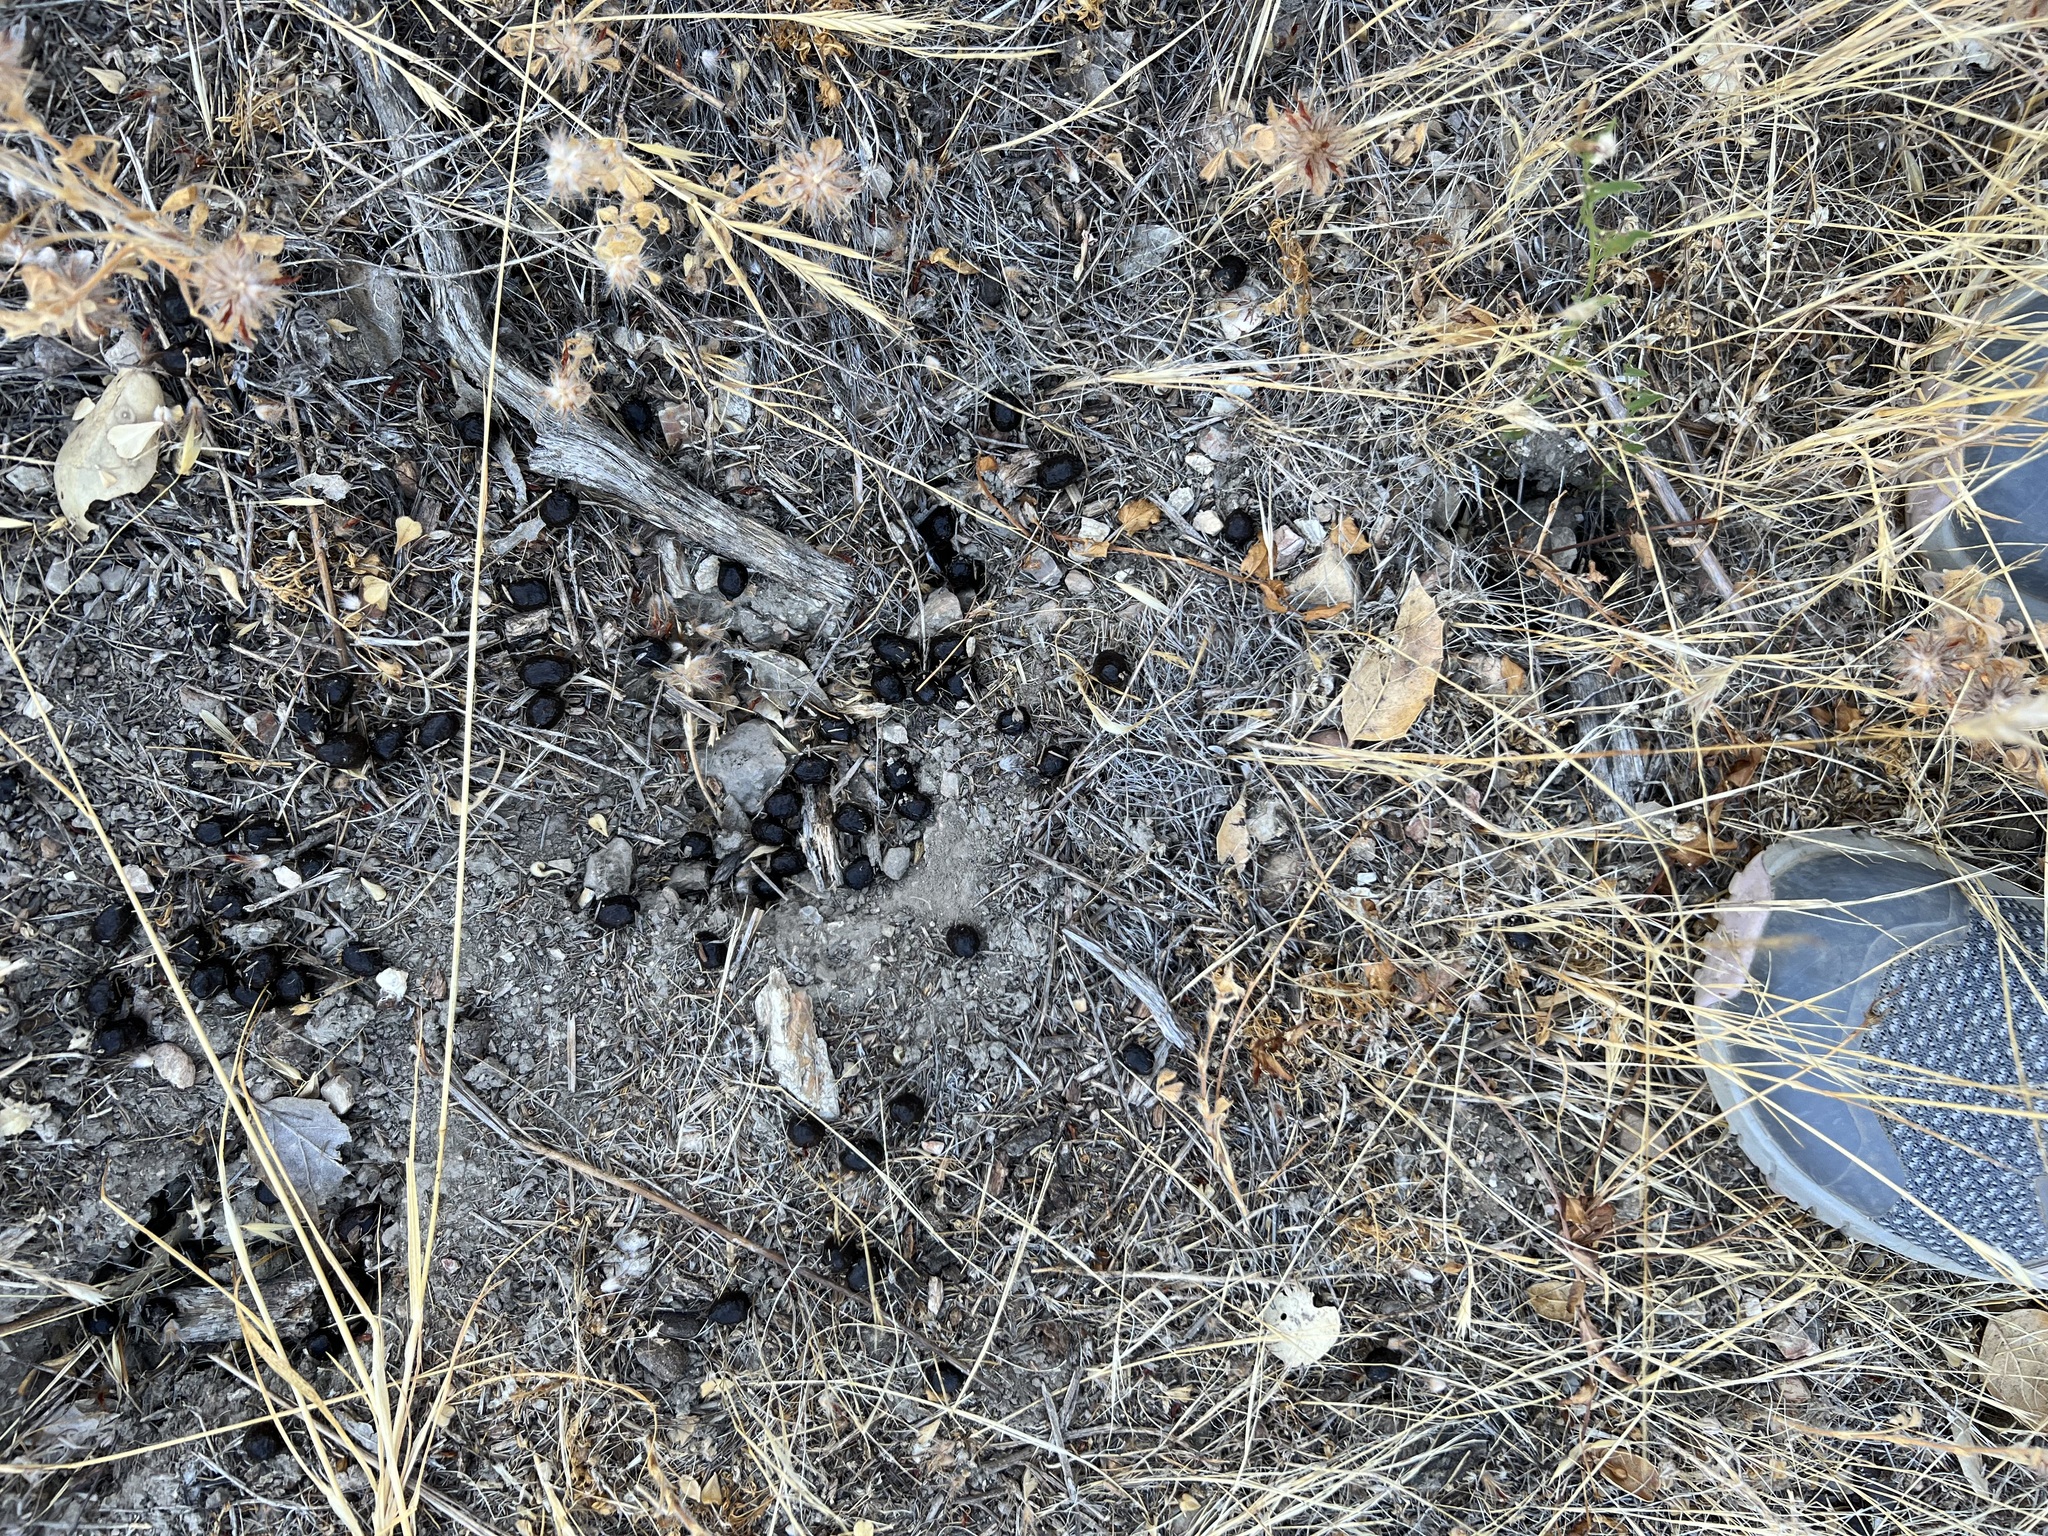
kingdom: Animalia
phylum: Chordata
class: Mammalia
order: Artiodactyla
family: Cervidae
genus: Odocoileus
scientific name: Odocoileus hemionus
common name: Mule deer
